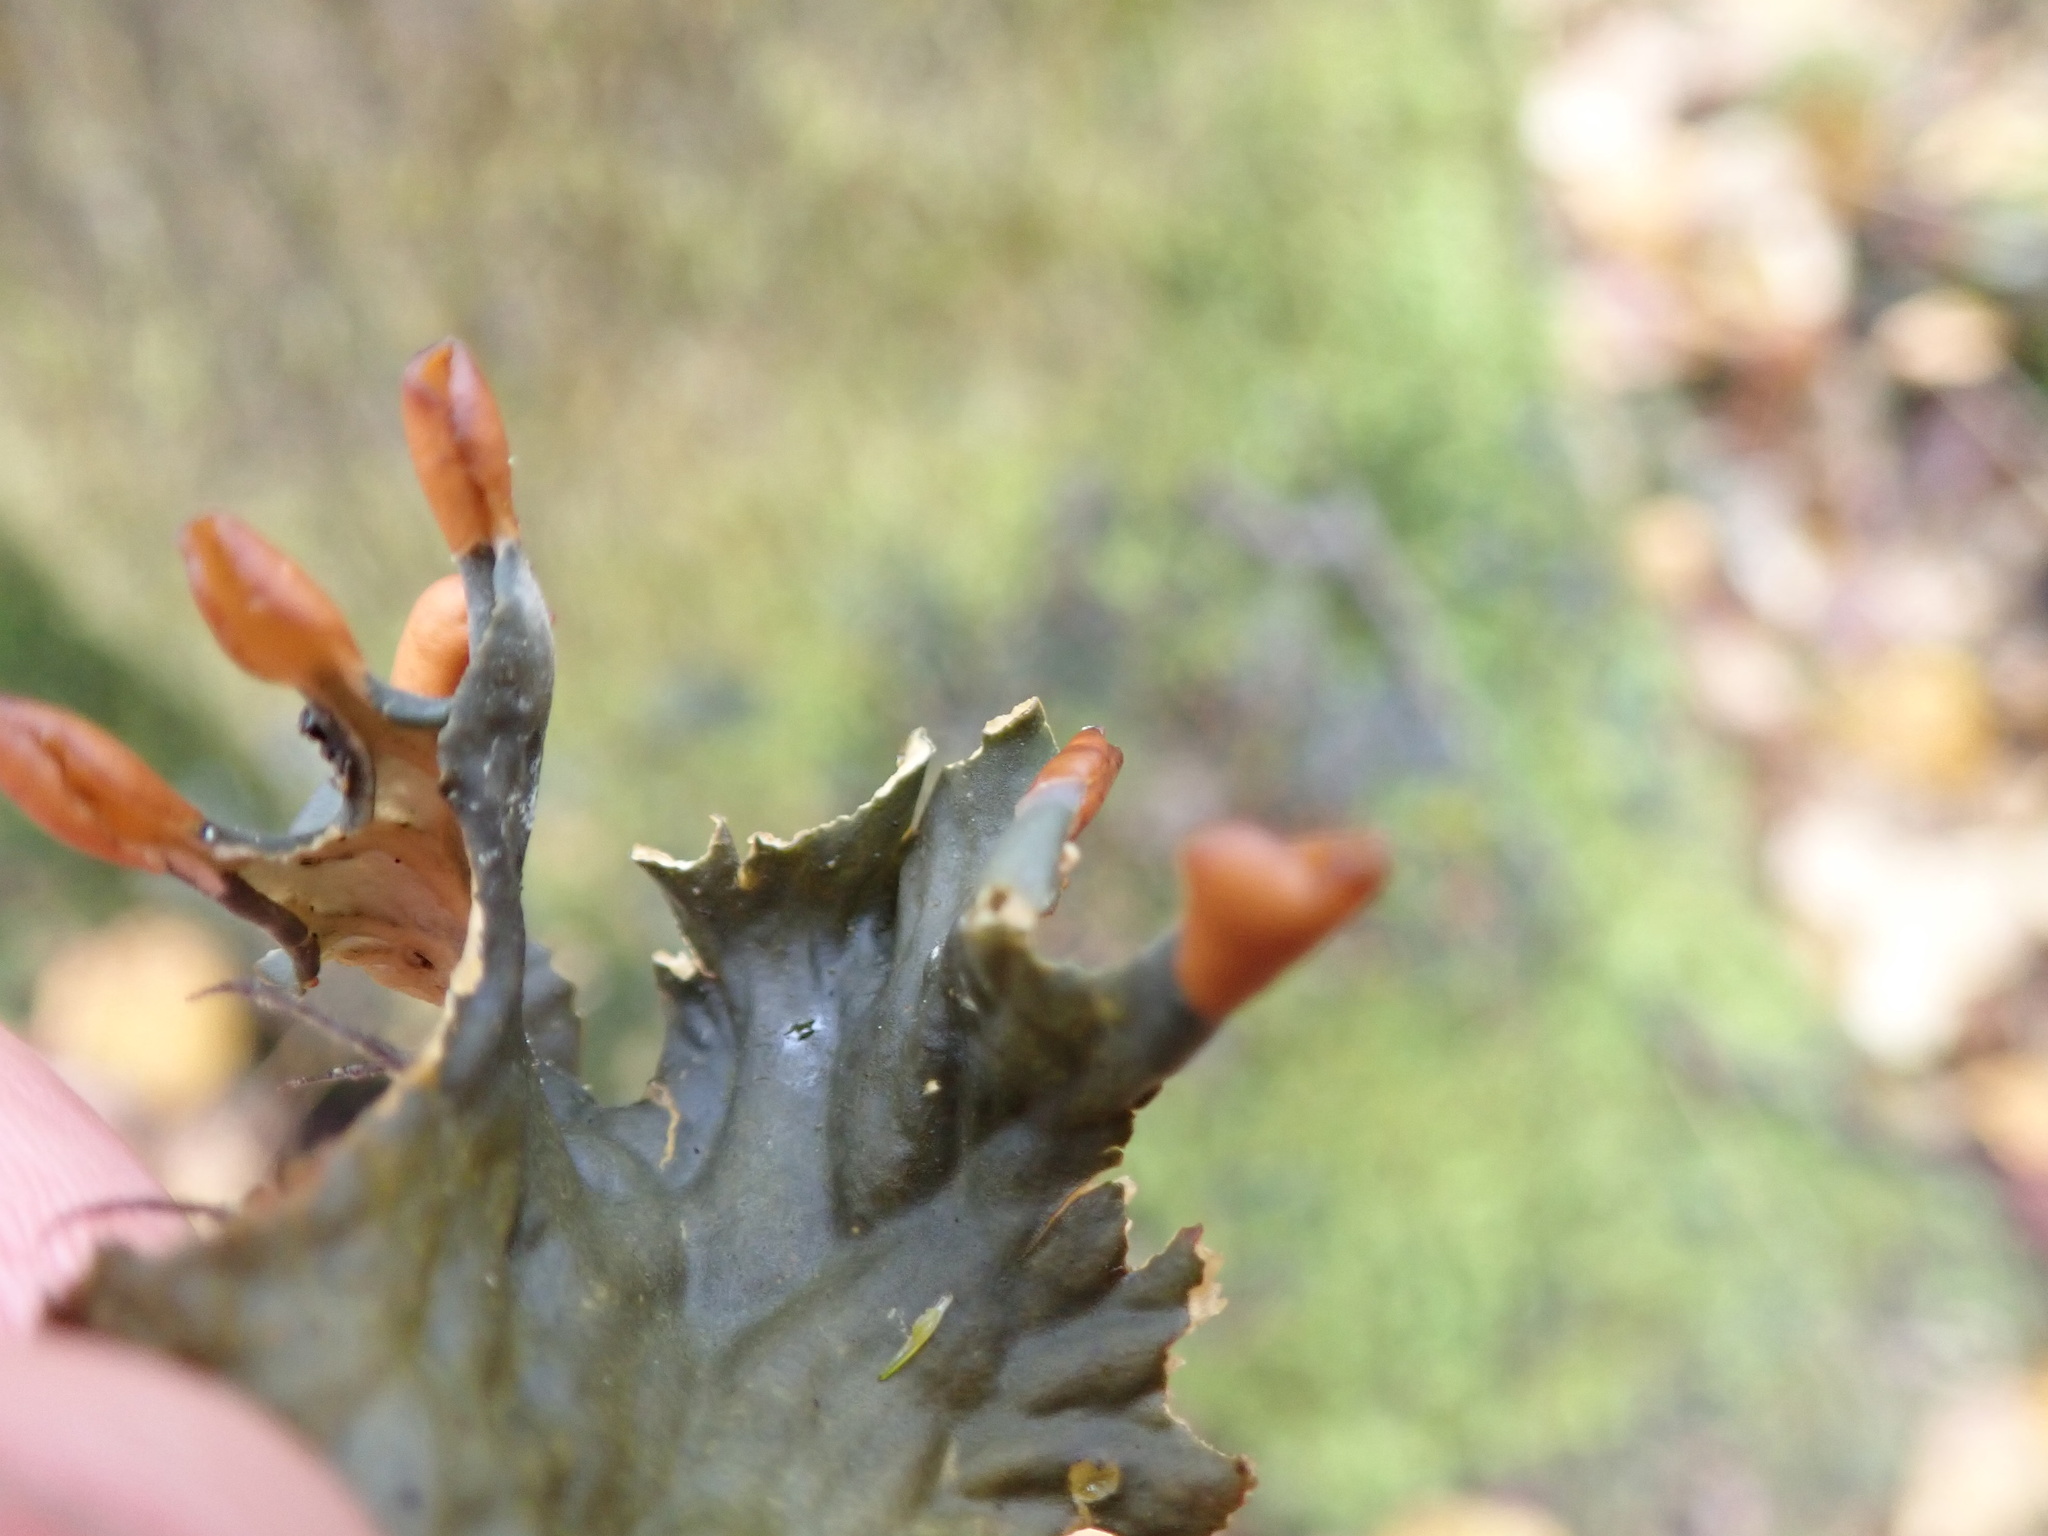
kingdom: Fungi
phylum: Ascomycota
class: Lecanoromycetes
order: Peltigerales
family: Peltigeraceae
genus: Peltigera
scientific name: Peltigera membranacea
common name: Membranous pelt lichen
